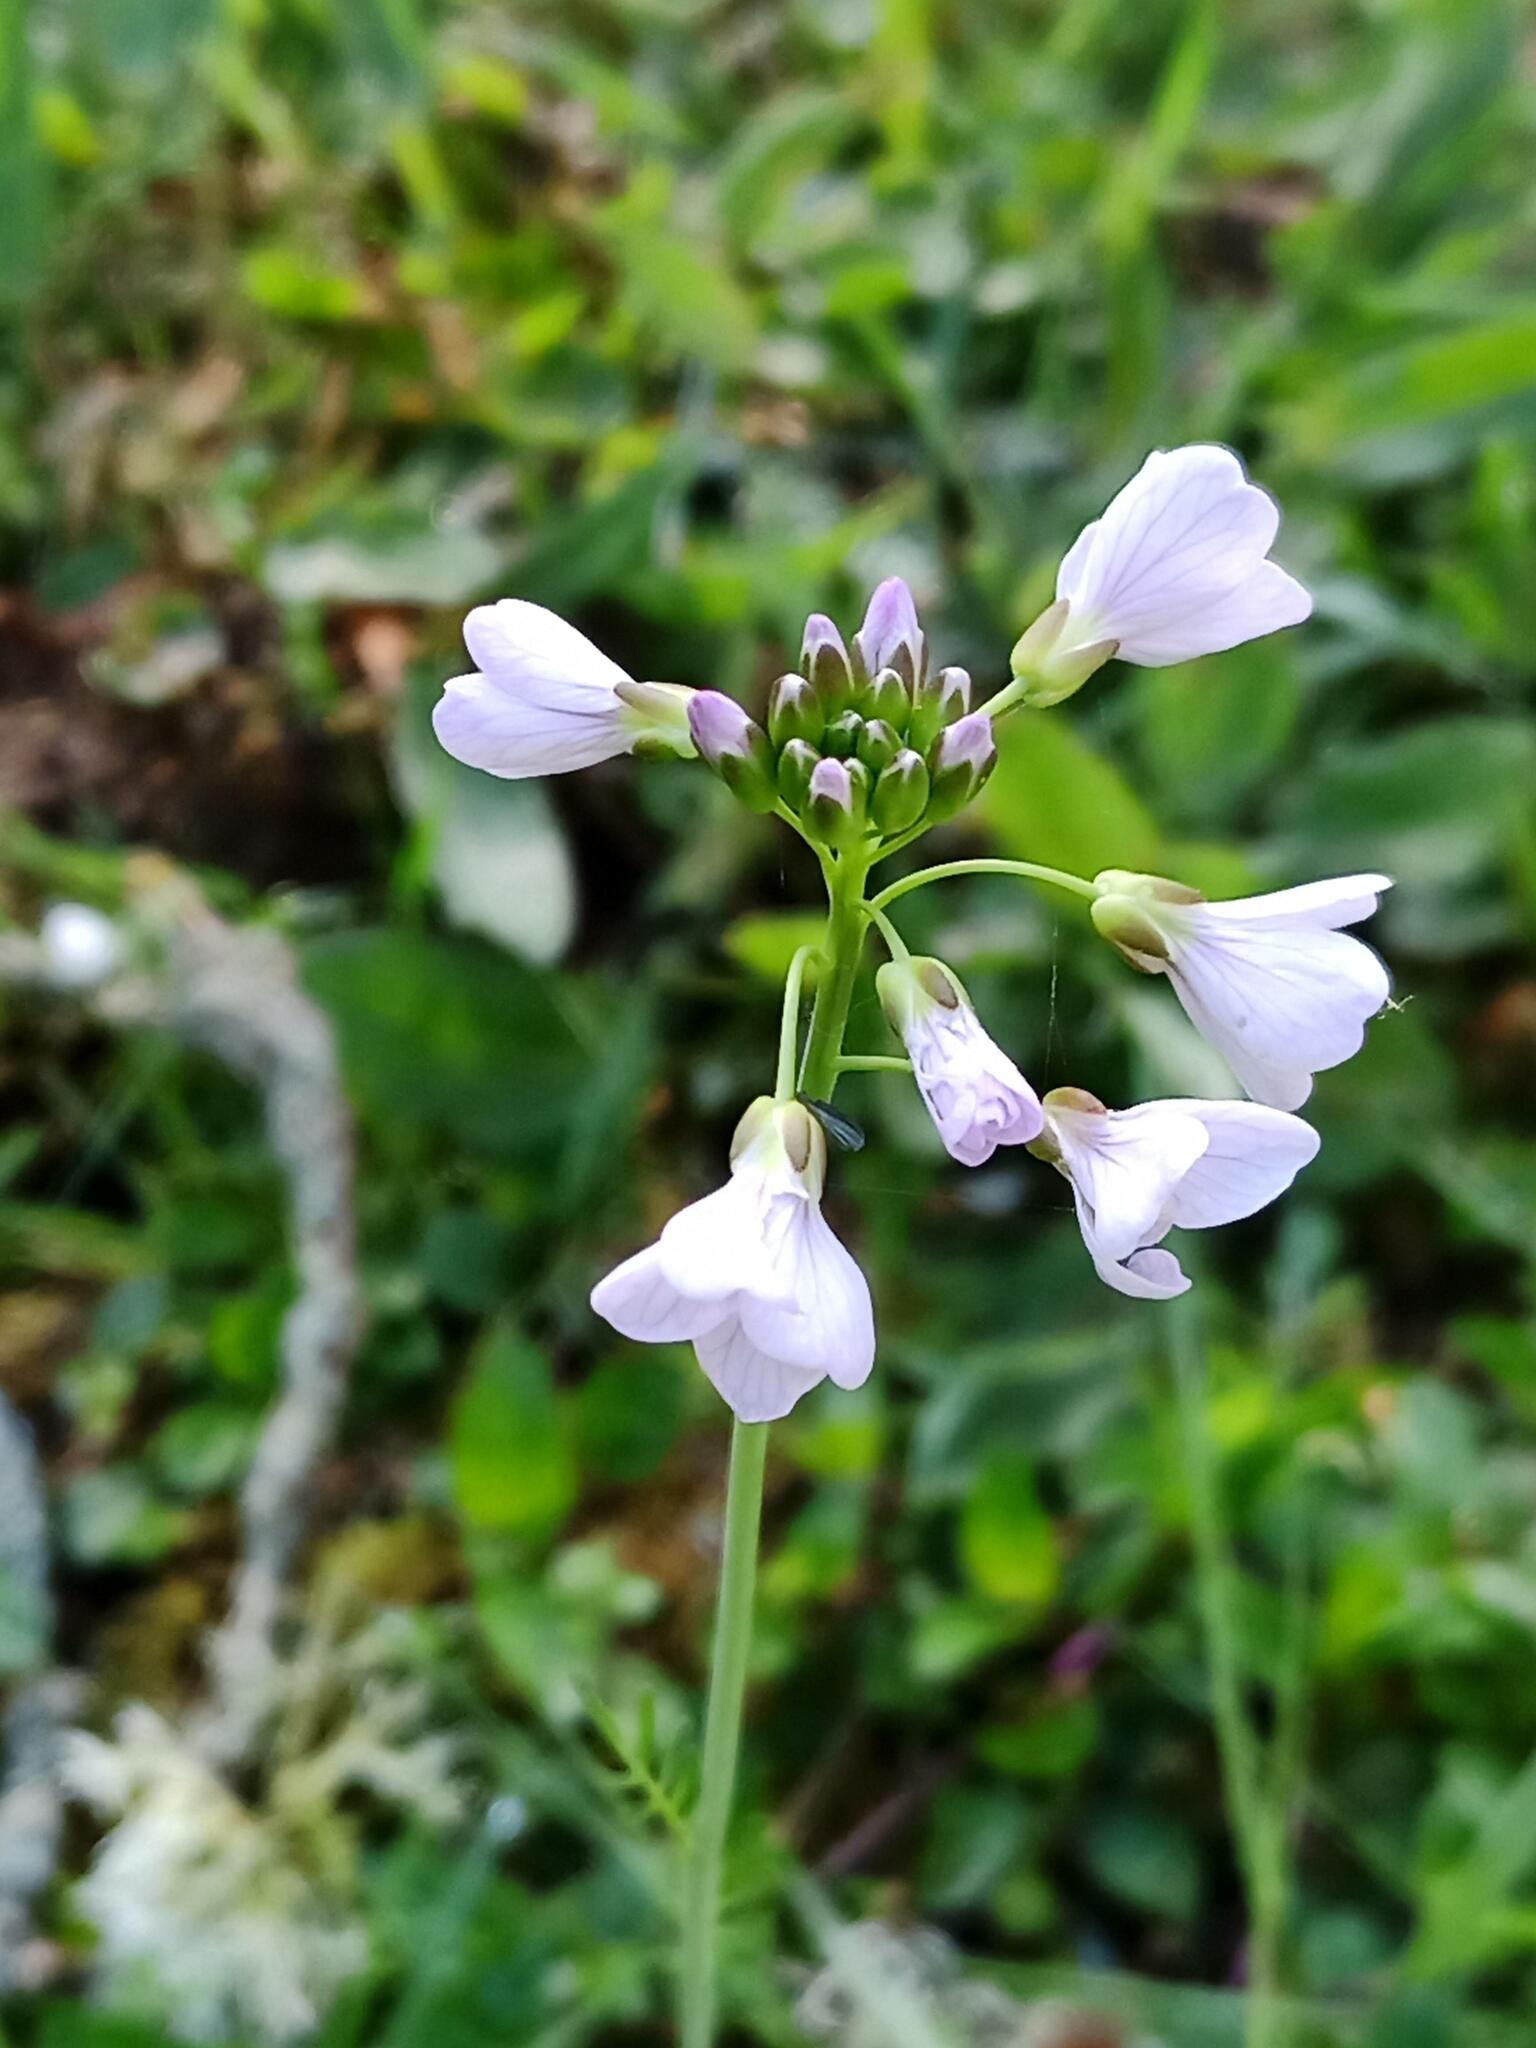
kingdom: Plantae
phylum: Tracheophyta
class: Magnoliopsida
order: Brassicales
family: Brassicaceae
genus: Cardamine
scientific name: Cardamine pratensis
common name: Cuckoo flower
